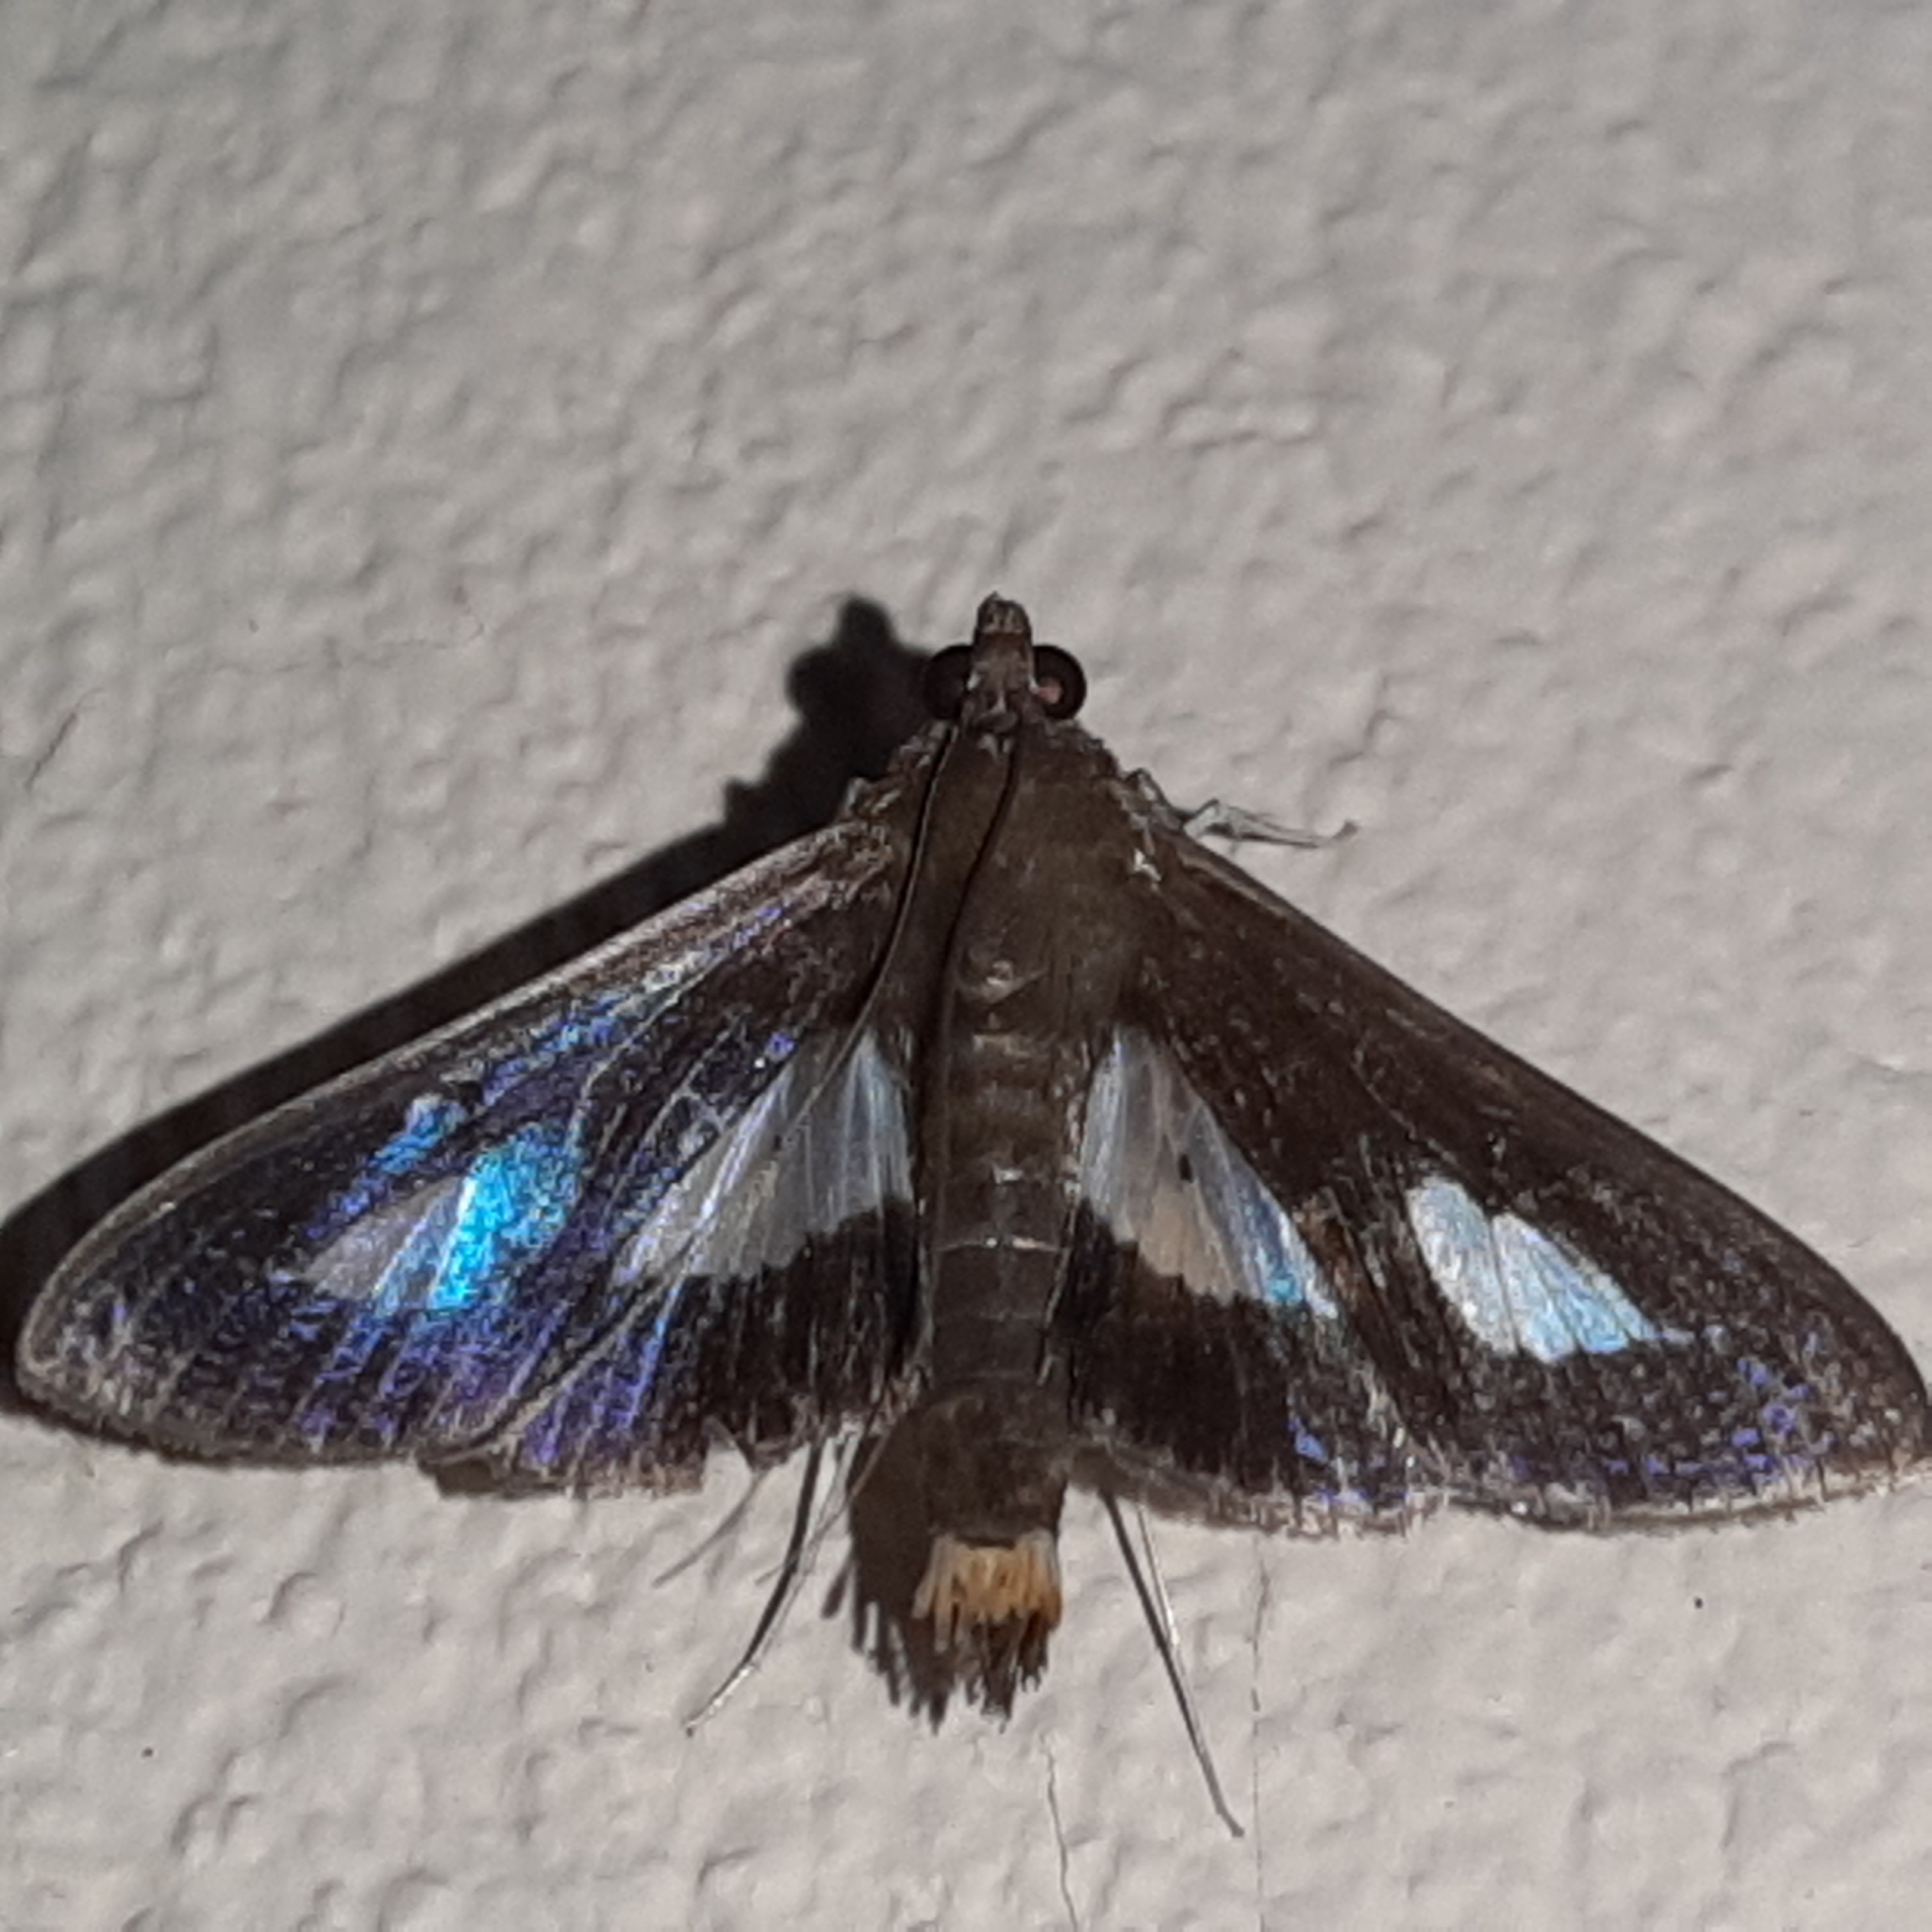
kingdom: Animalia
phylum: Arthropoda
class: Insecta
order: Lepidoptera
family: Crambidae
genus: Diaphania
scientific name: Diaphania
